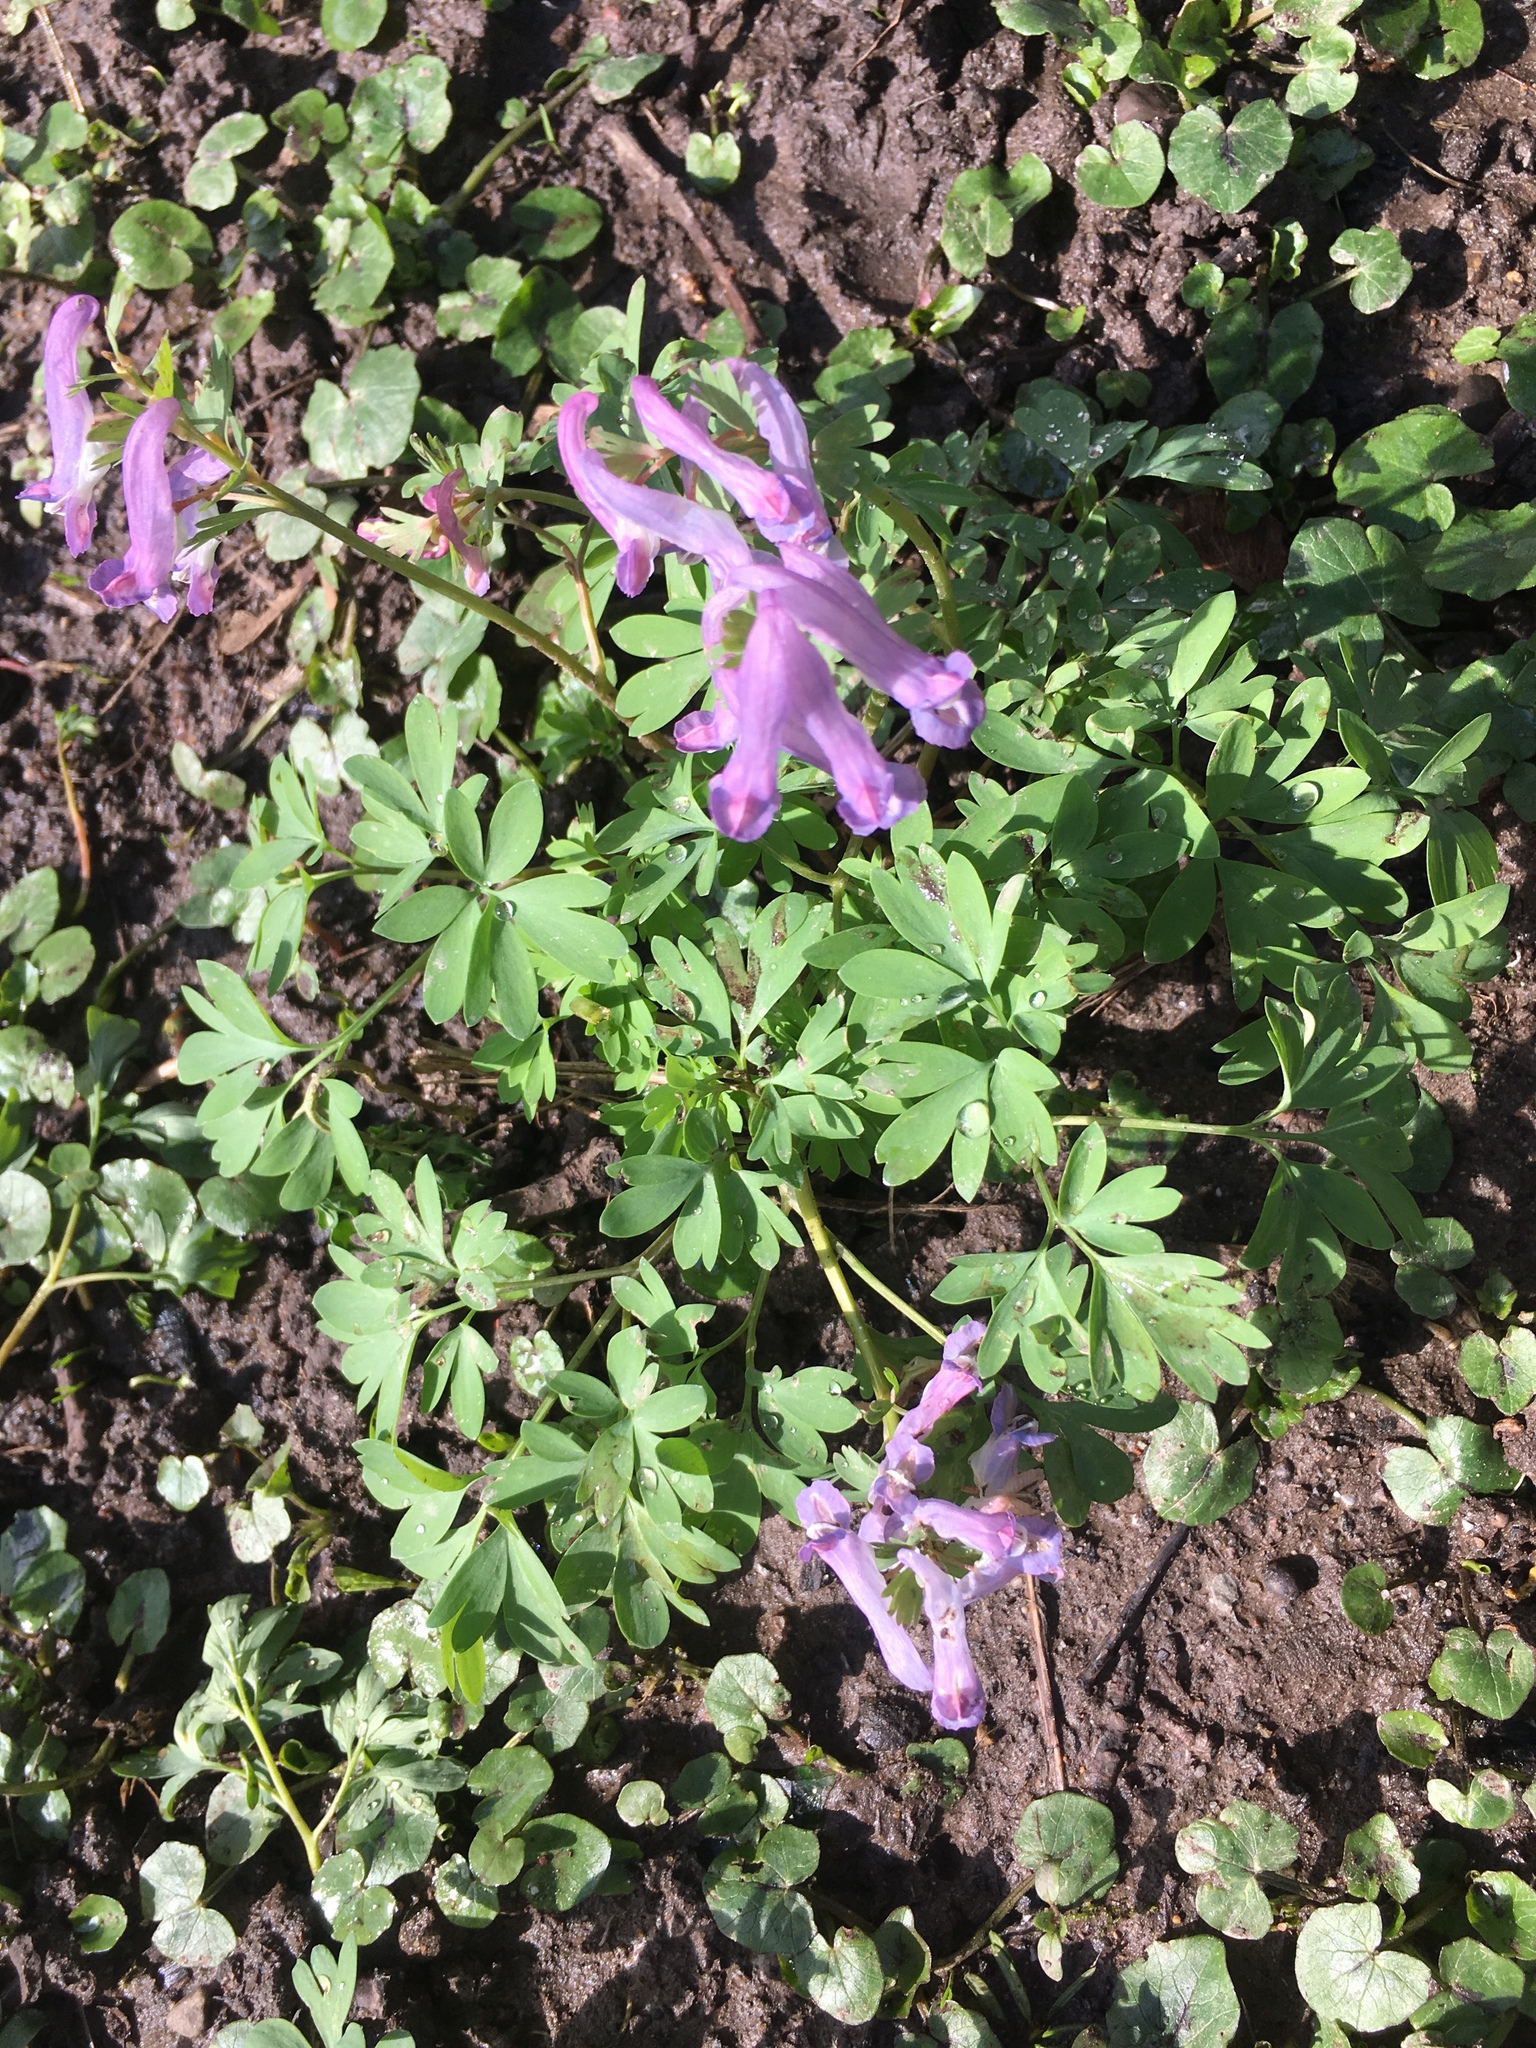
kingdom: Plantae
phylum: Tracheophyta
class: Magnoliopsida
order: Ranunculales
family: Papaveraceae
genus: Corydalis
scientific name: Corydalis solida
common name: Bird-in-a-bush
